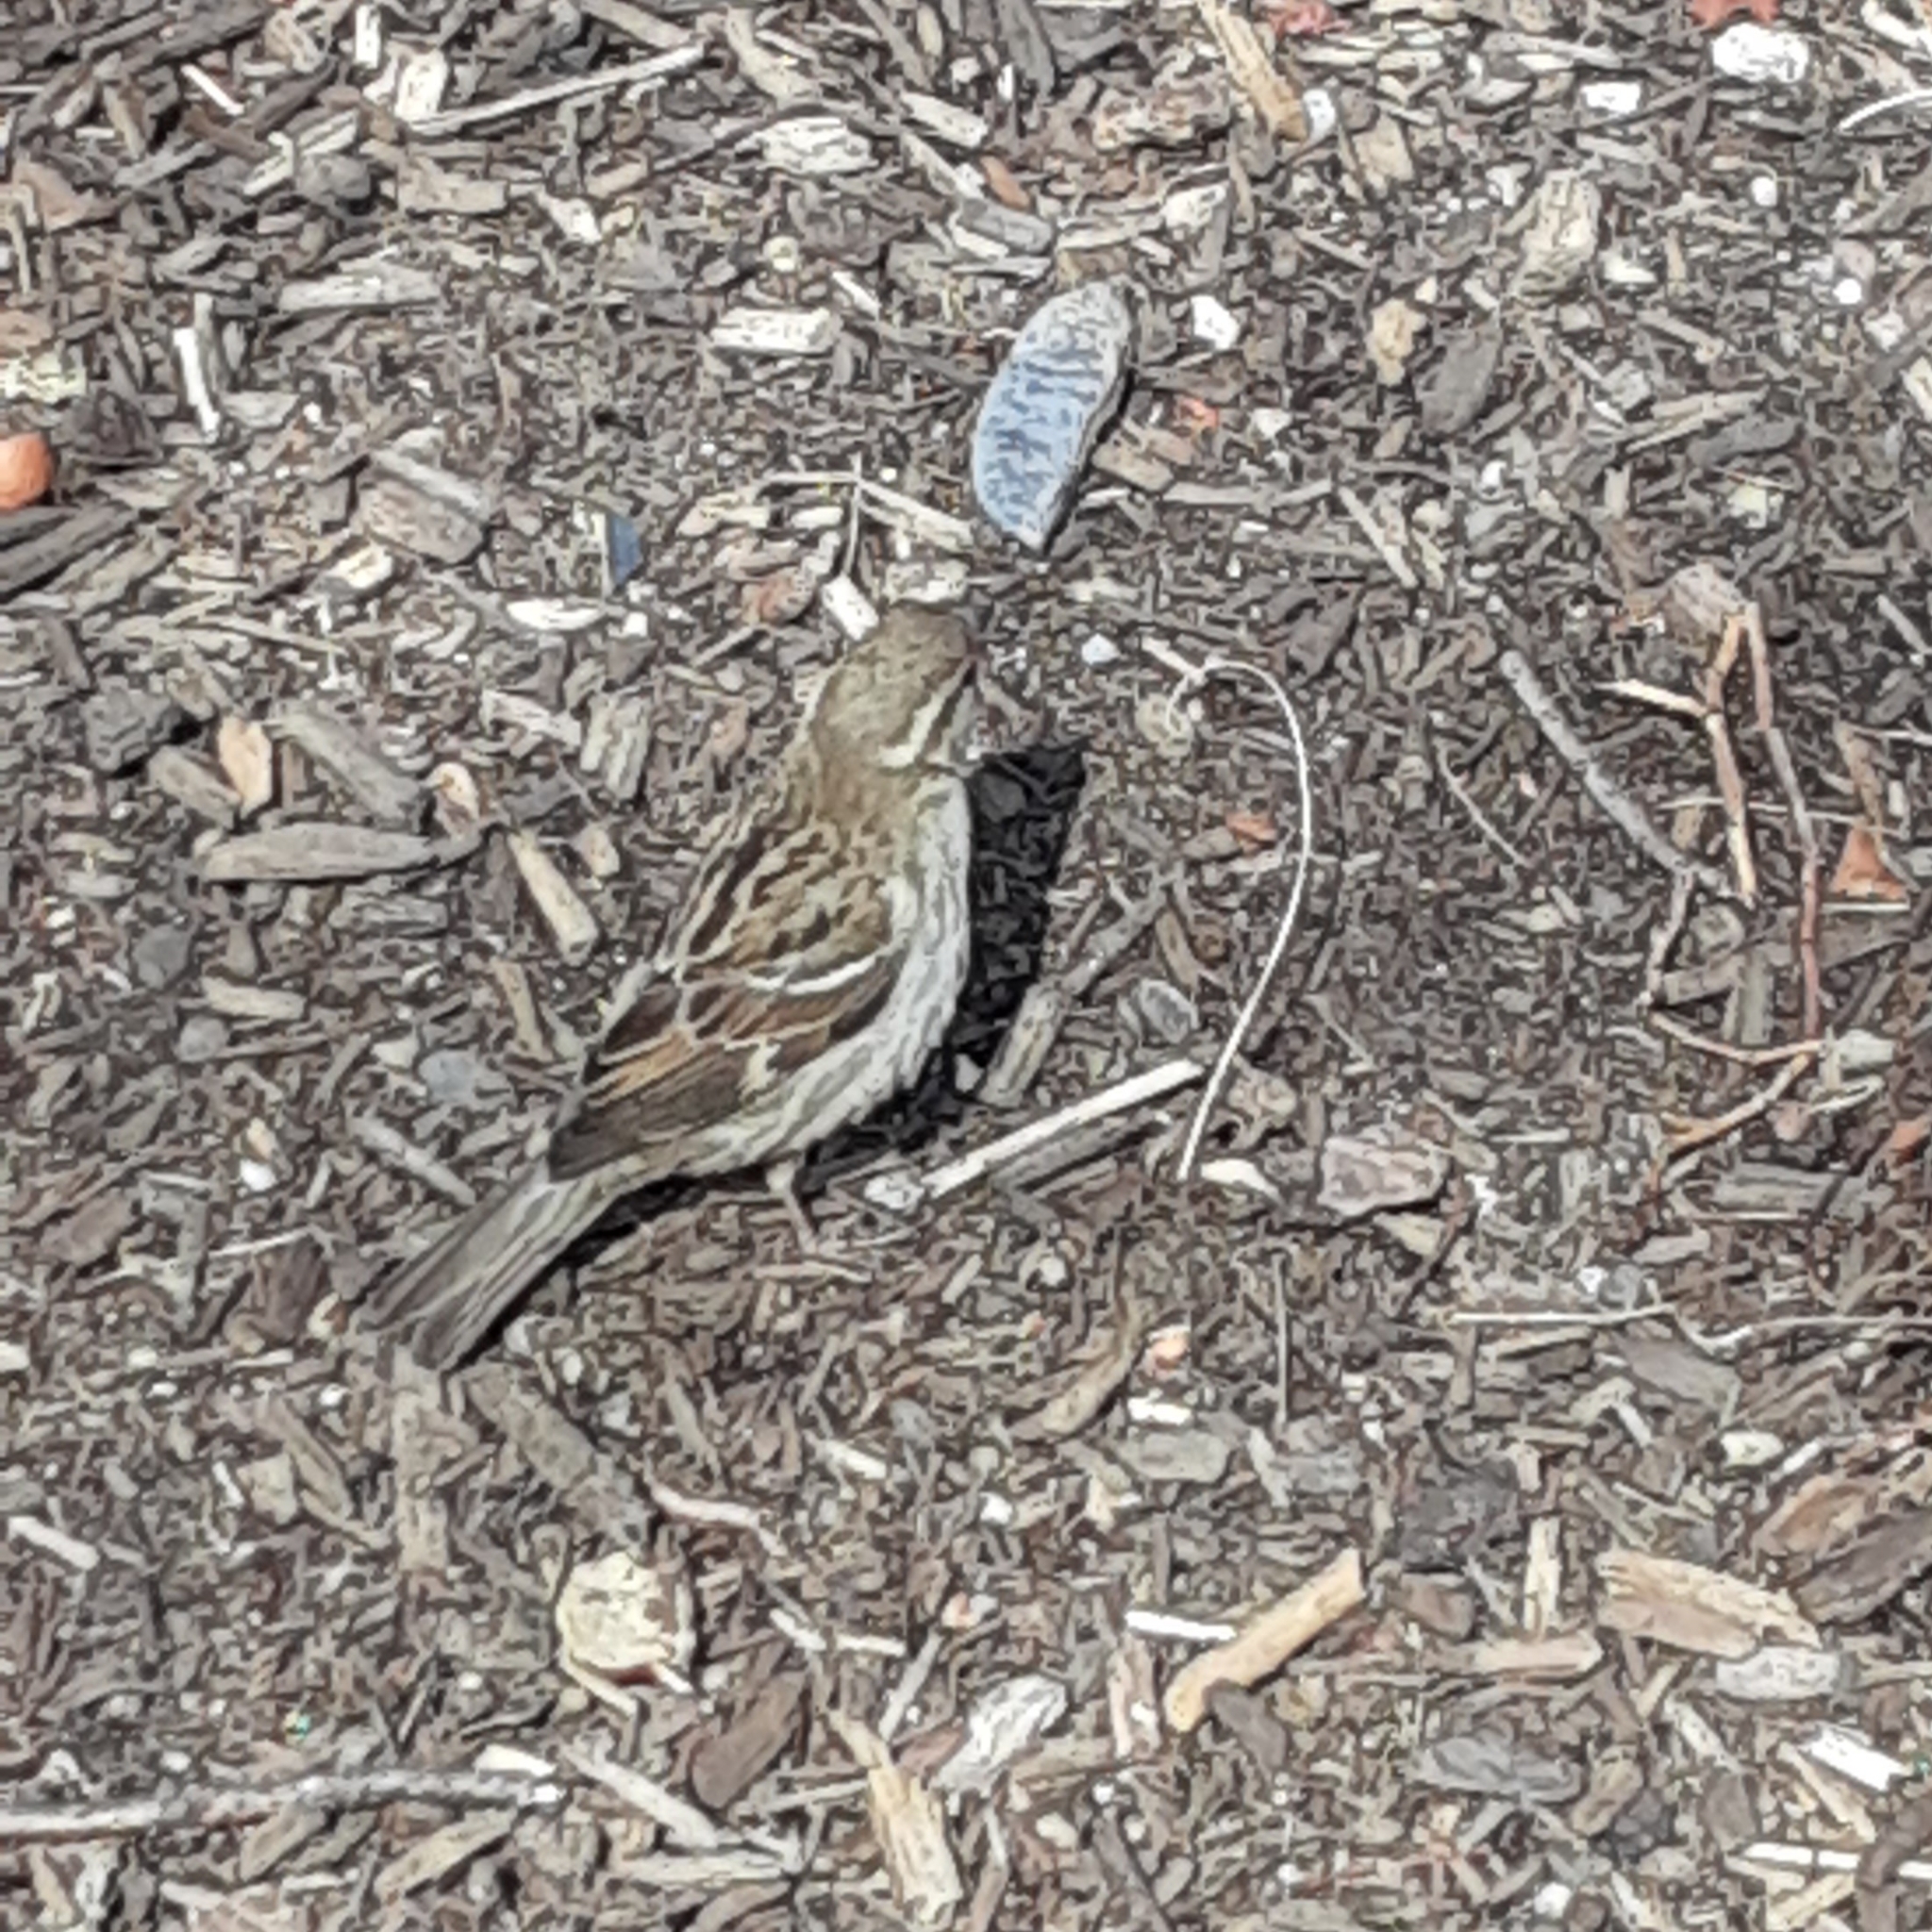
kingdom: Animalia
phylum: Chordata
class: Aves
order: Passeriformes
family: Passeridae
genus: Passer
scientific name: Passer domesticus
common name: House sparrow
